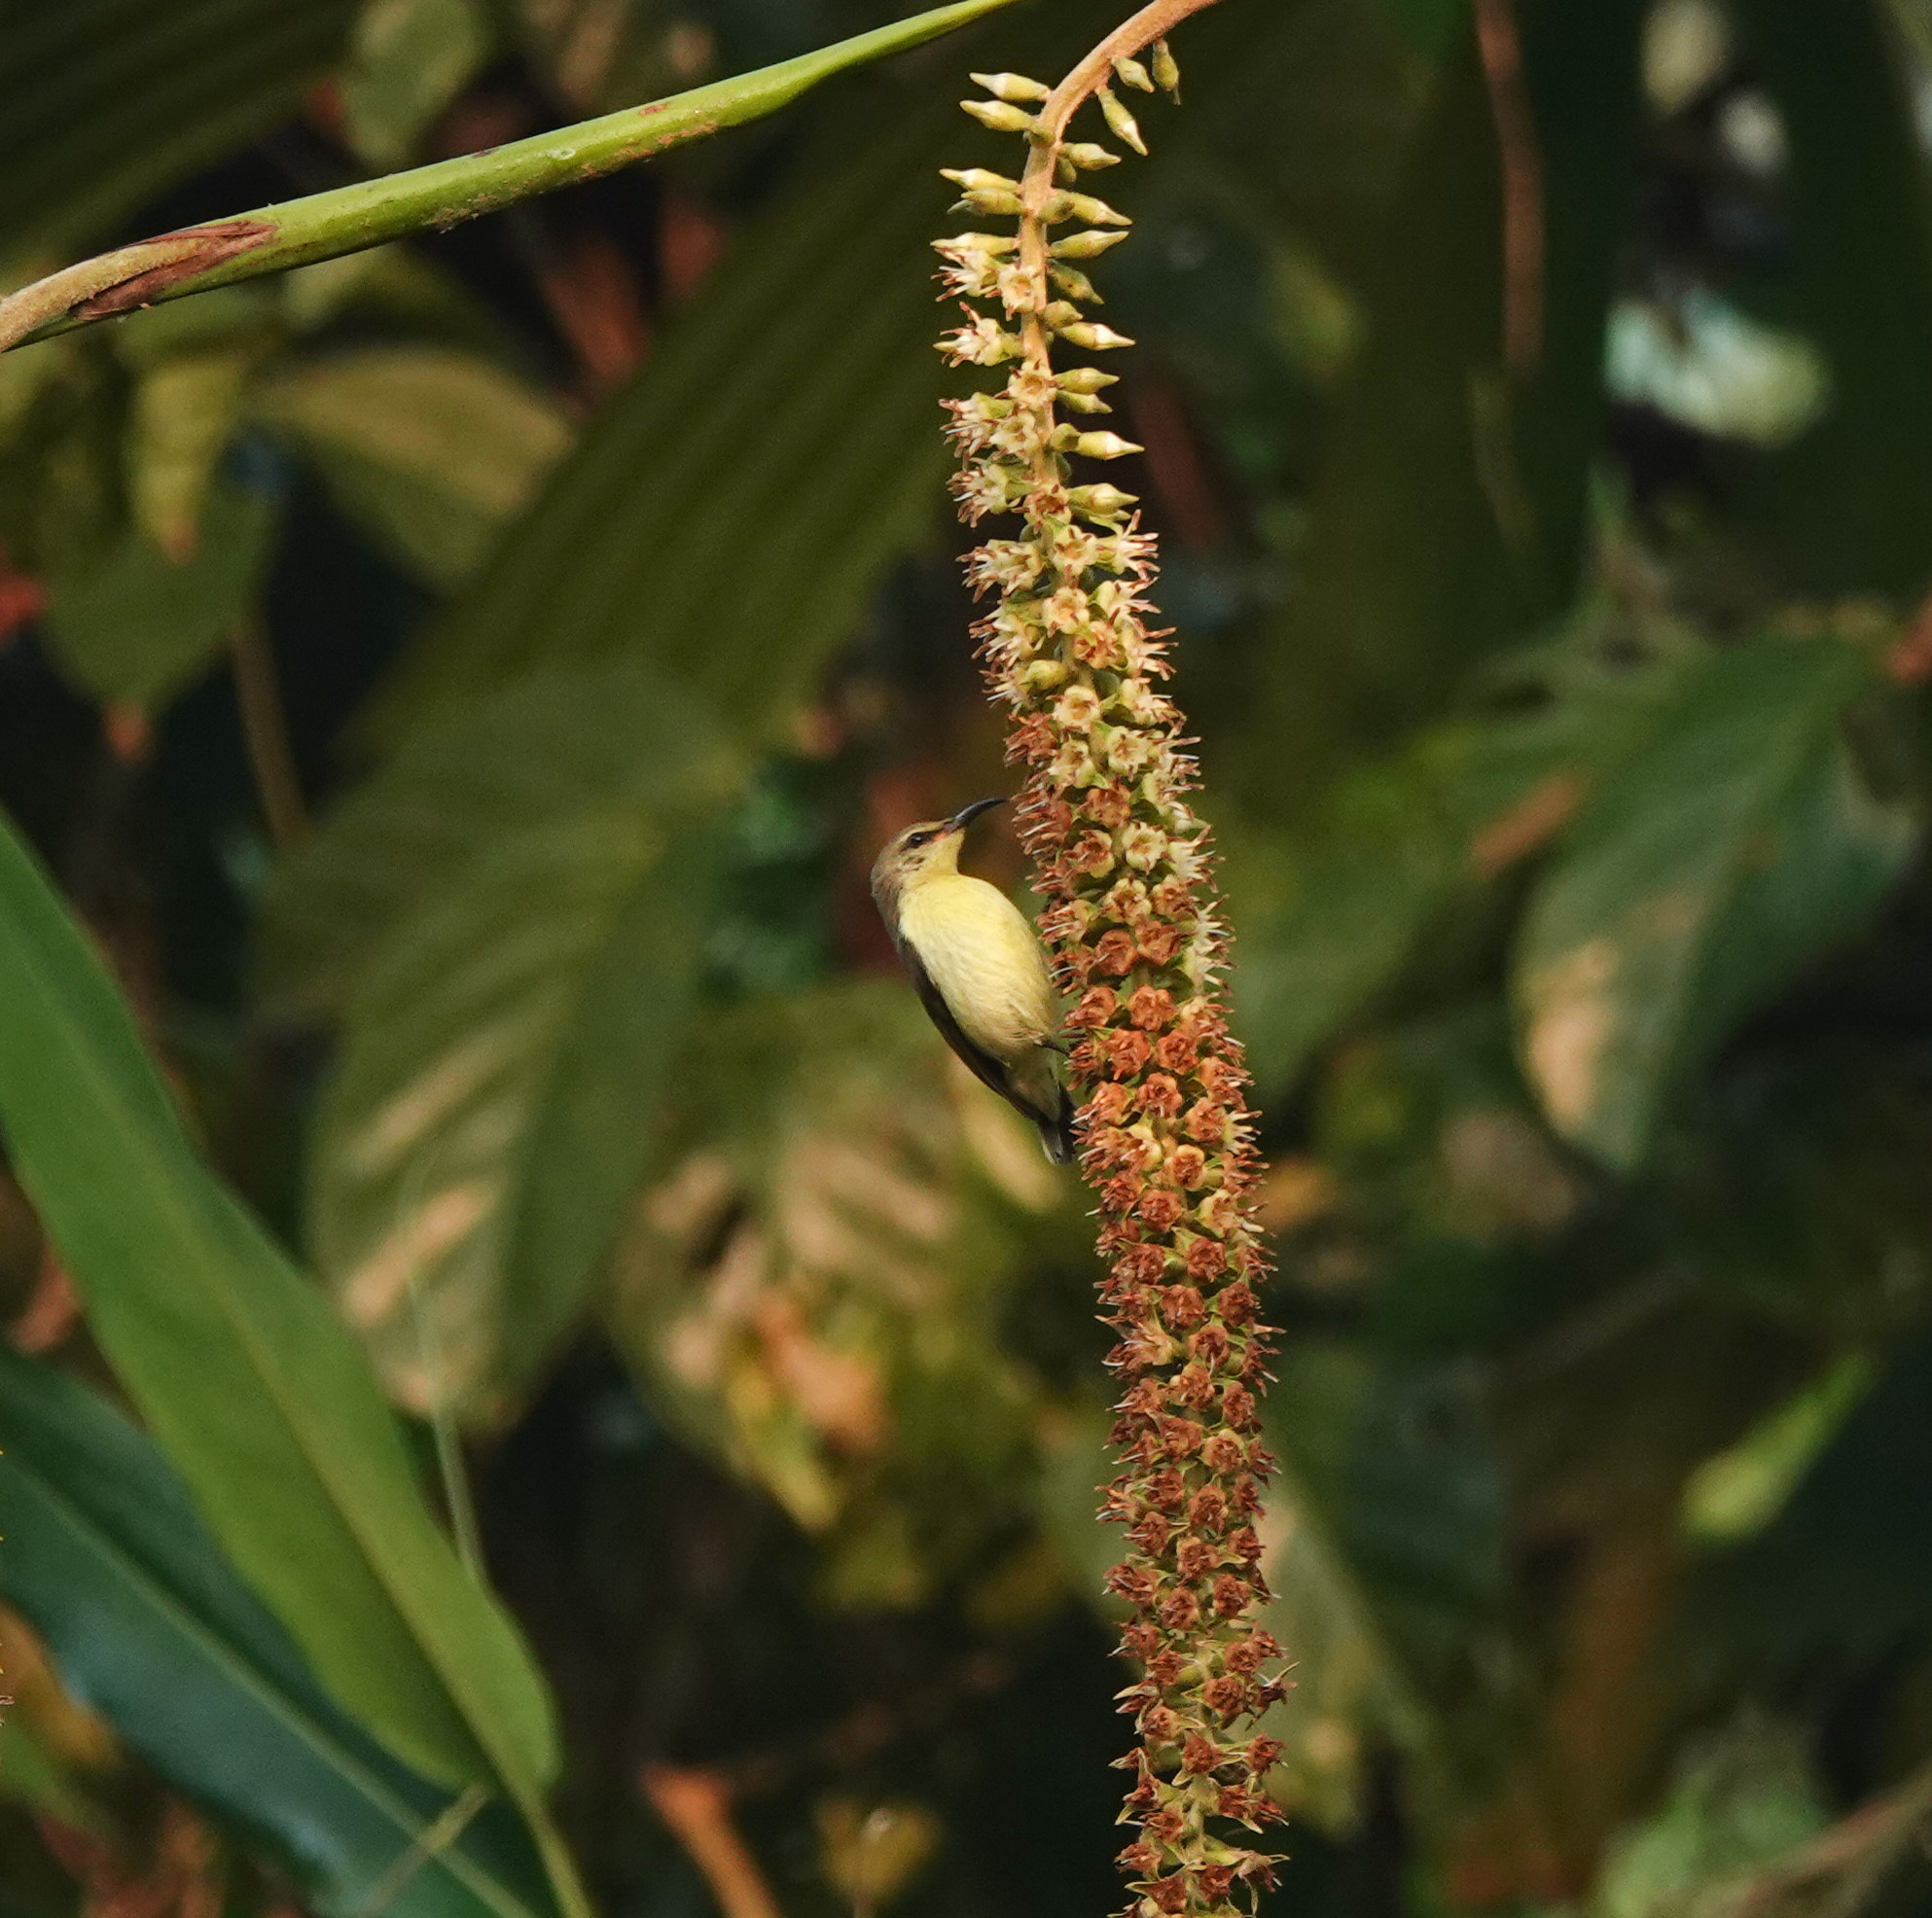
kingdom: Animalia
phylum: Chordata
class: Aves
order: Passeriformes
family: Nectariniidae
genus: Cinnyris
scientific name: Cinnyris asiaticus
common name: Purple sunbird
